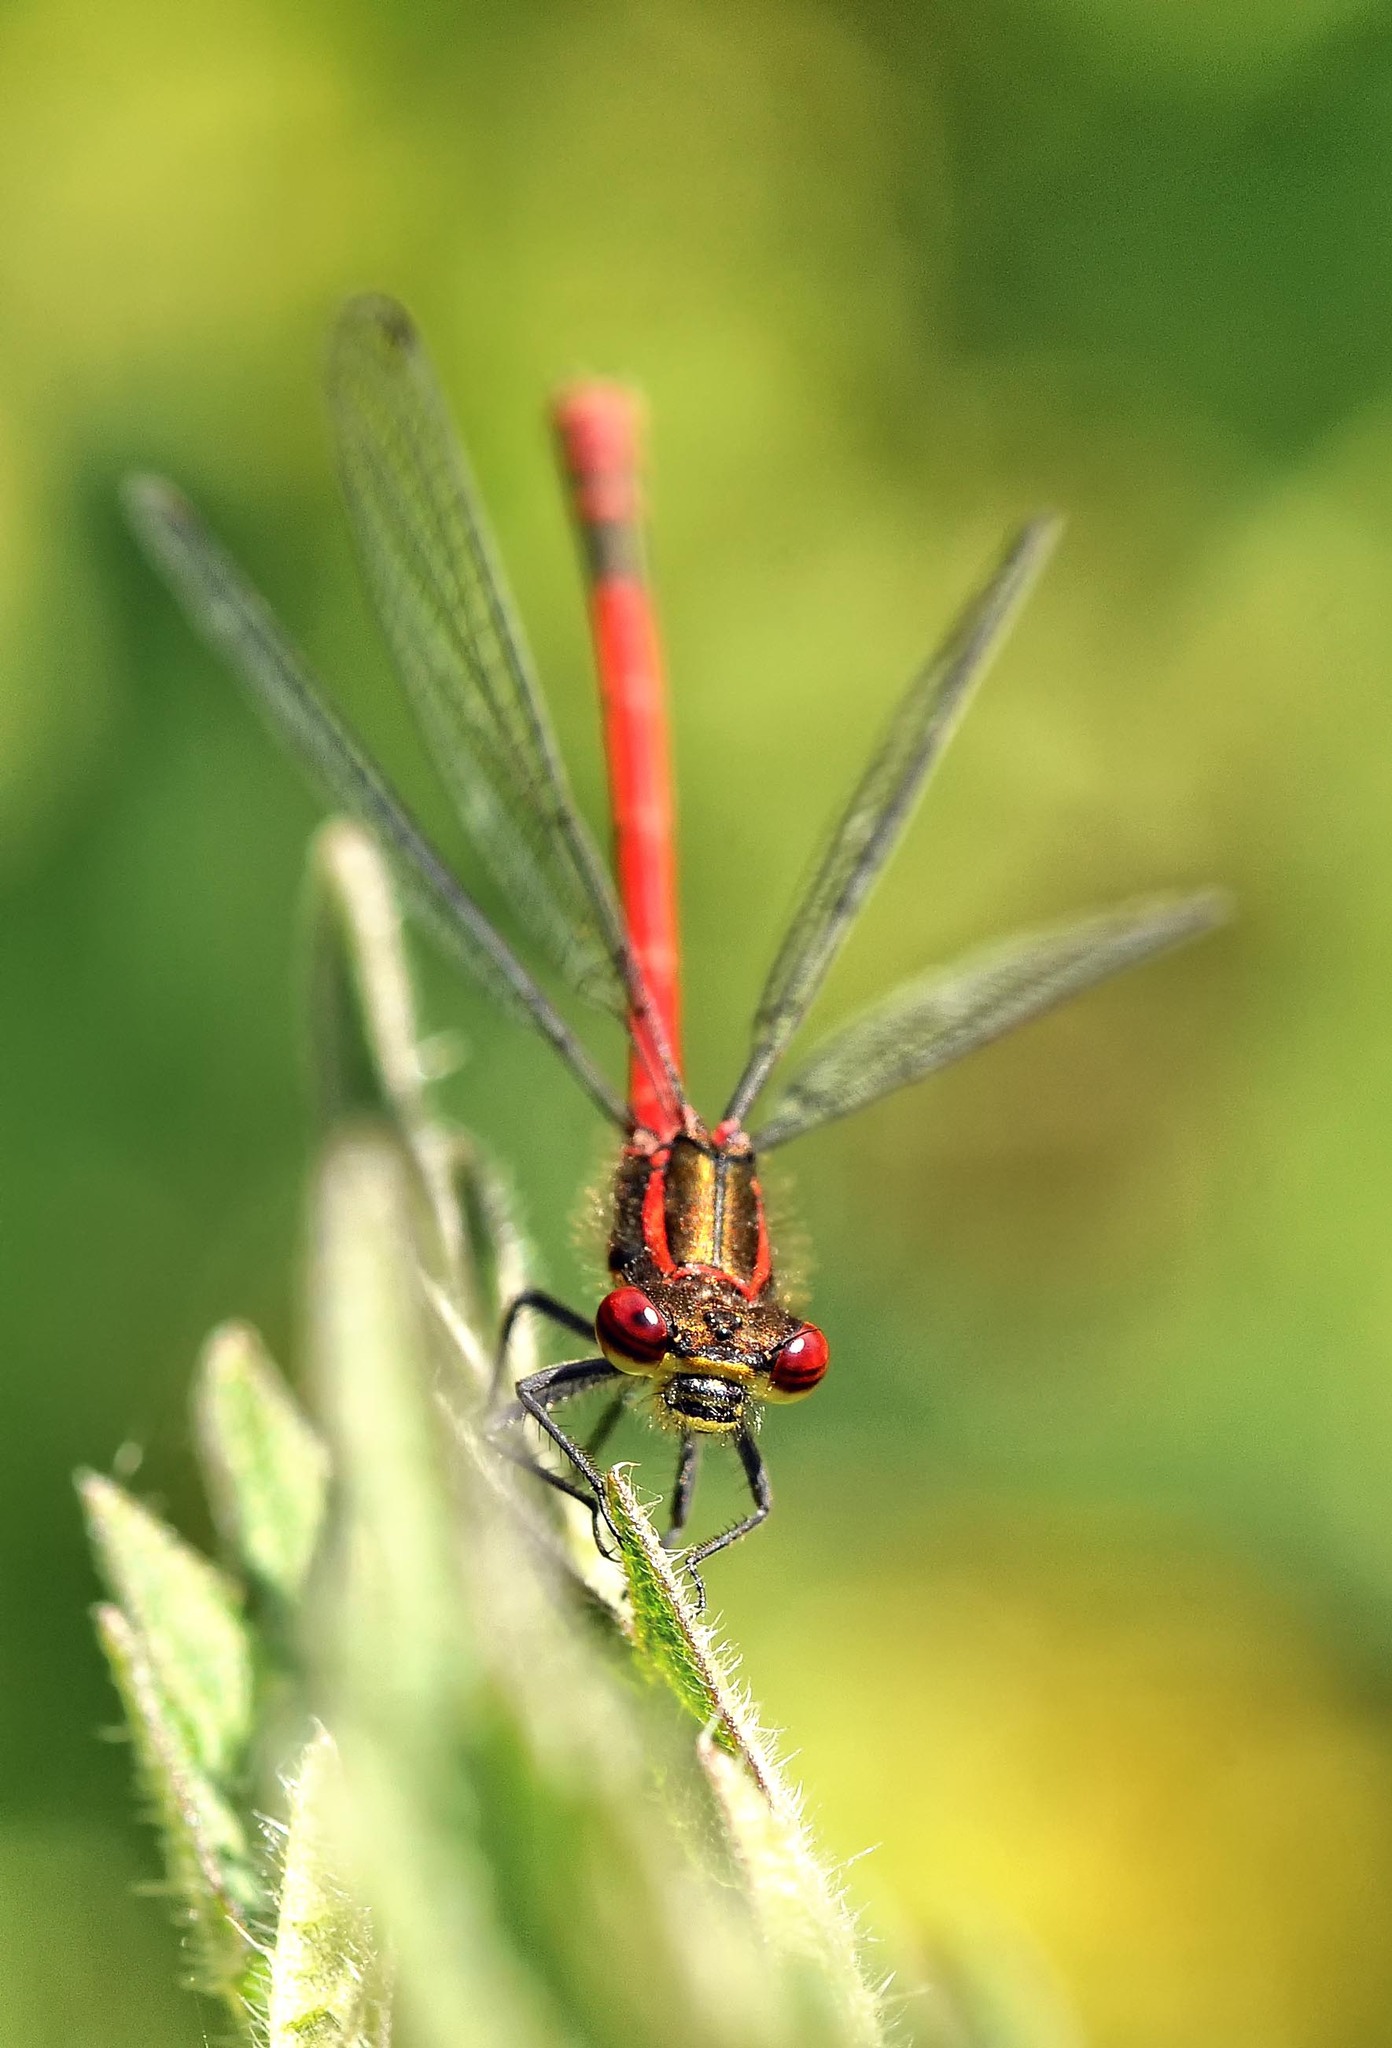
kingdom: Animalia
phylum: Arthropoda
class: Insecta
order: Odonata
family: Coenagrionidae
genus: Pyrrhosoma
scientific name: Pyrrhosoma nymphula
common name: Large red damsel
